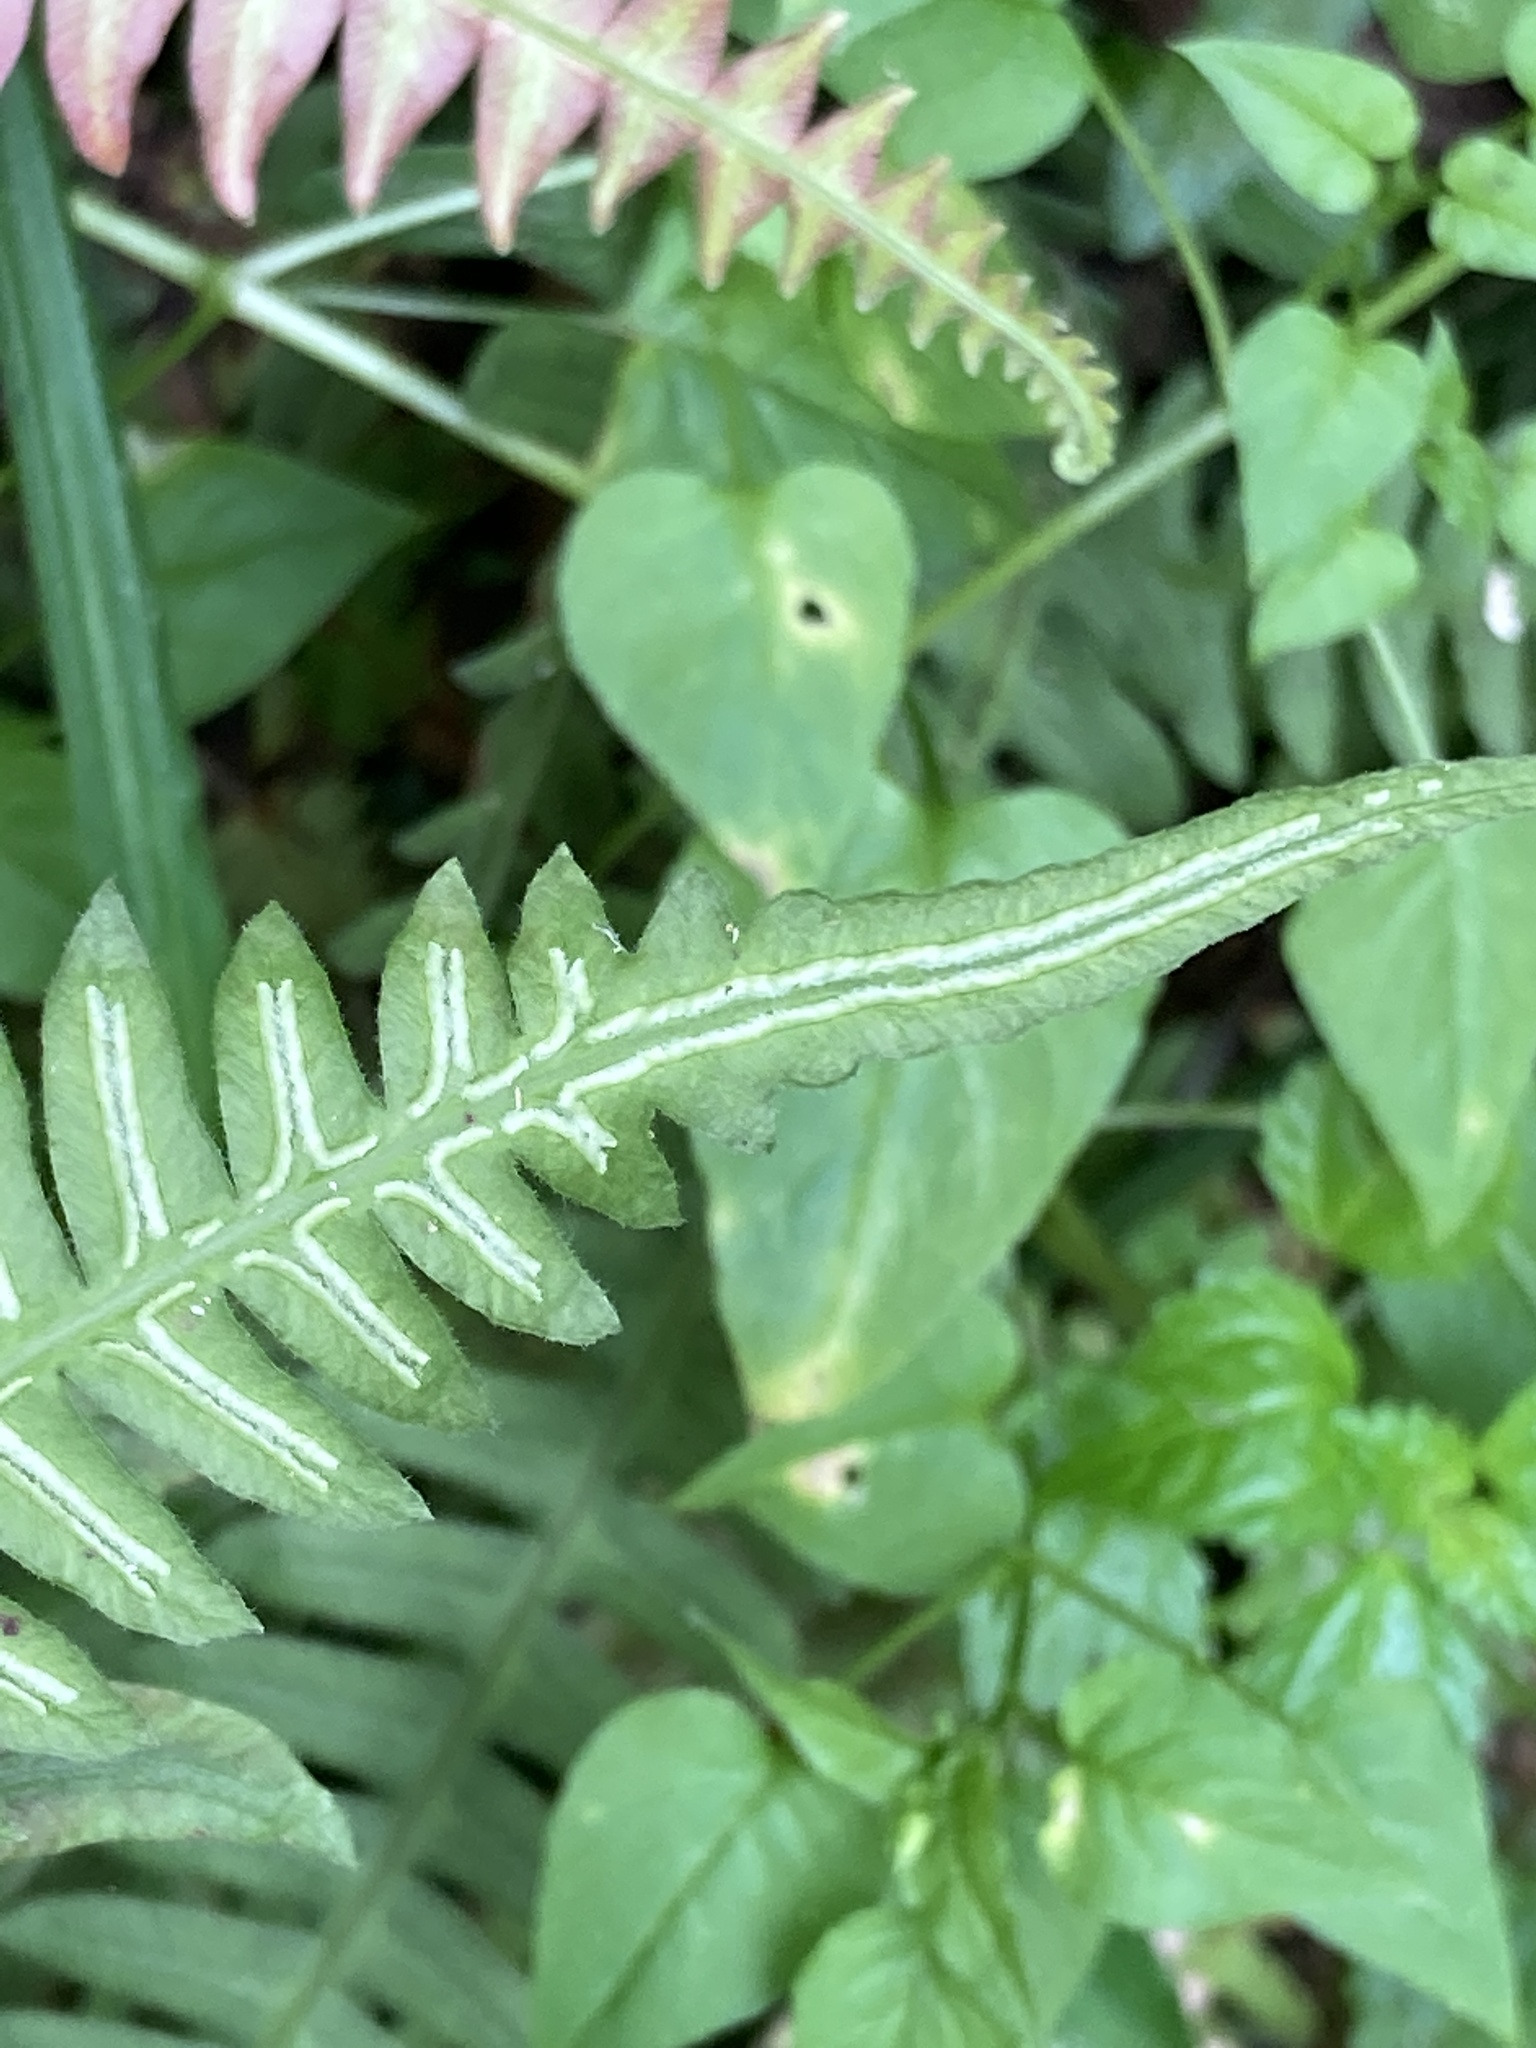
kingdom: Plantae
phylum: Tracheophyta
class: Polypodiopsida
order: Polypodiales
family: Blechnaceae
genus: Blechnum
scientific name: Blechnum asplenioides
